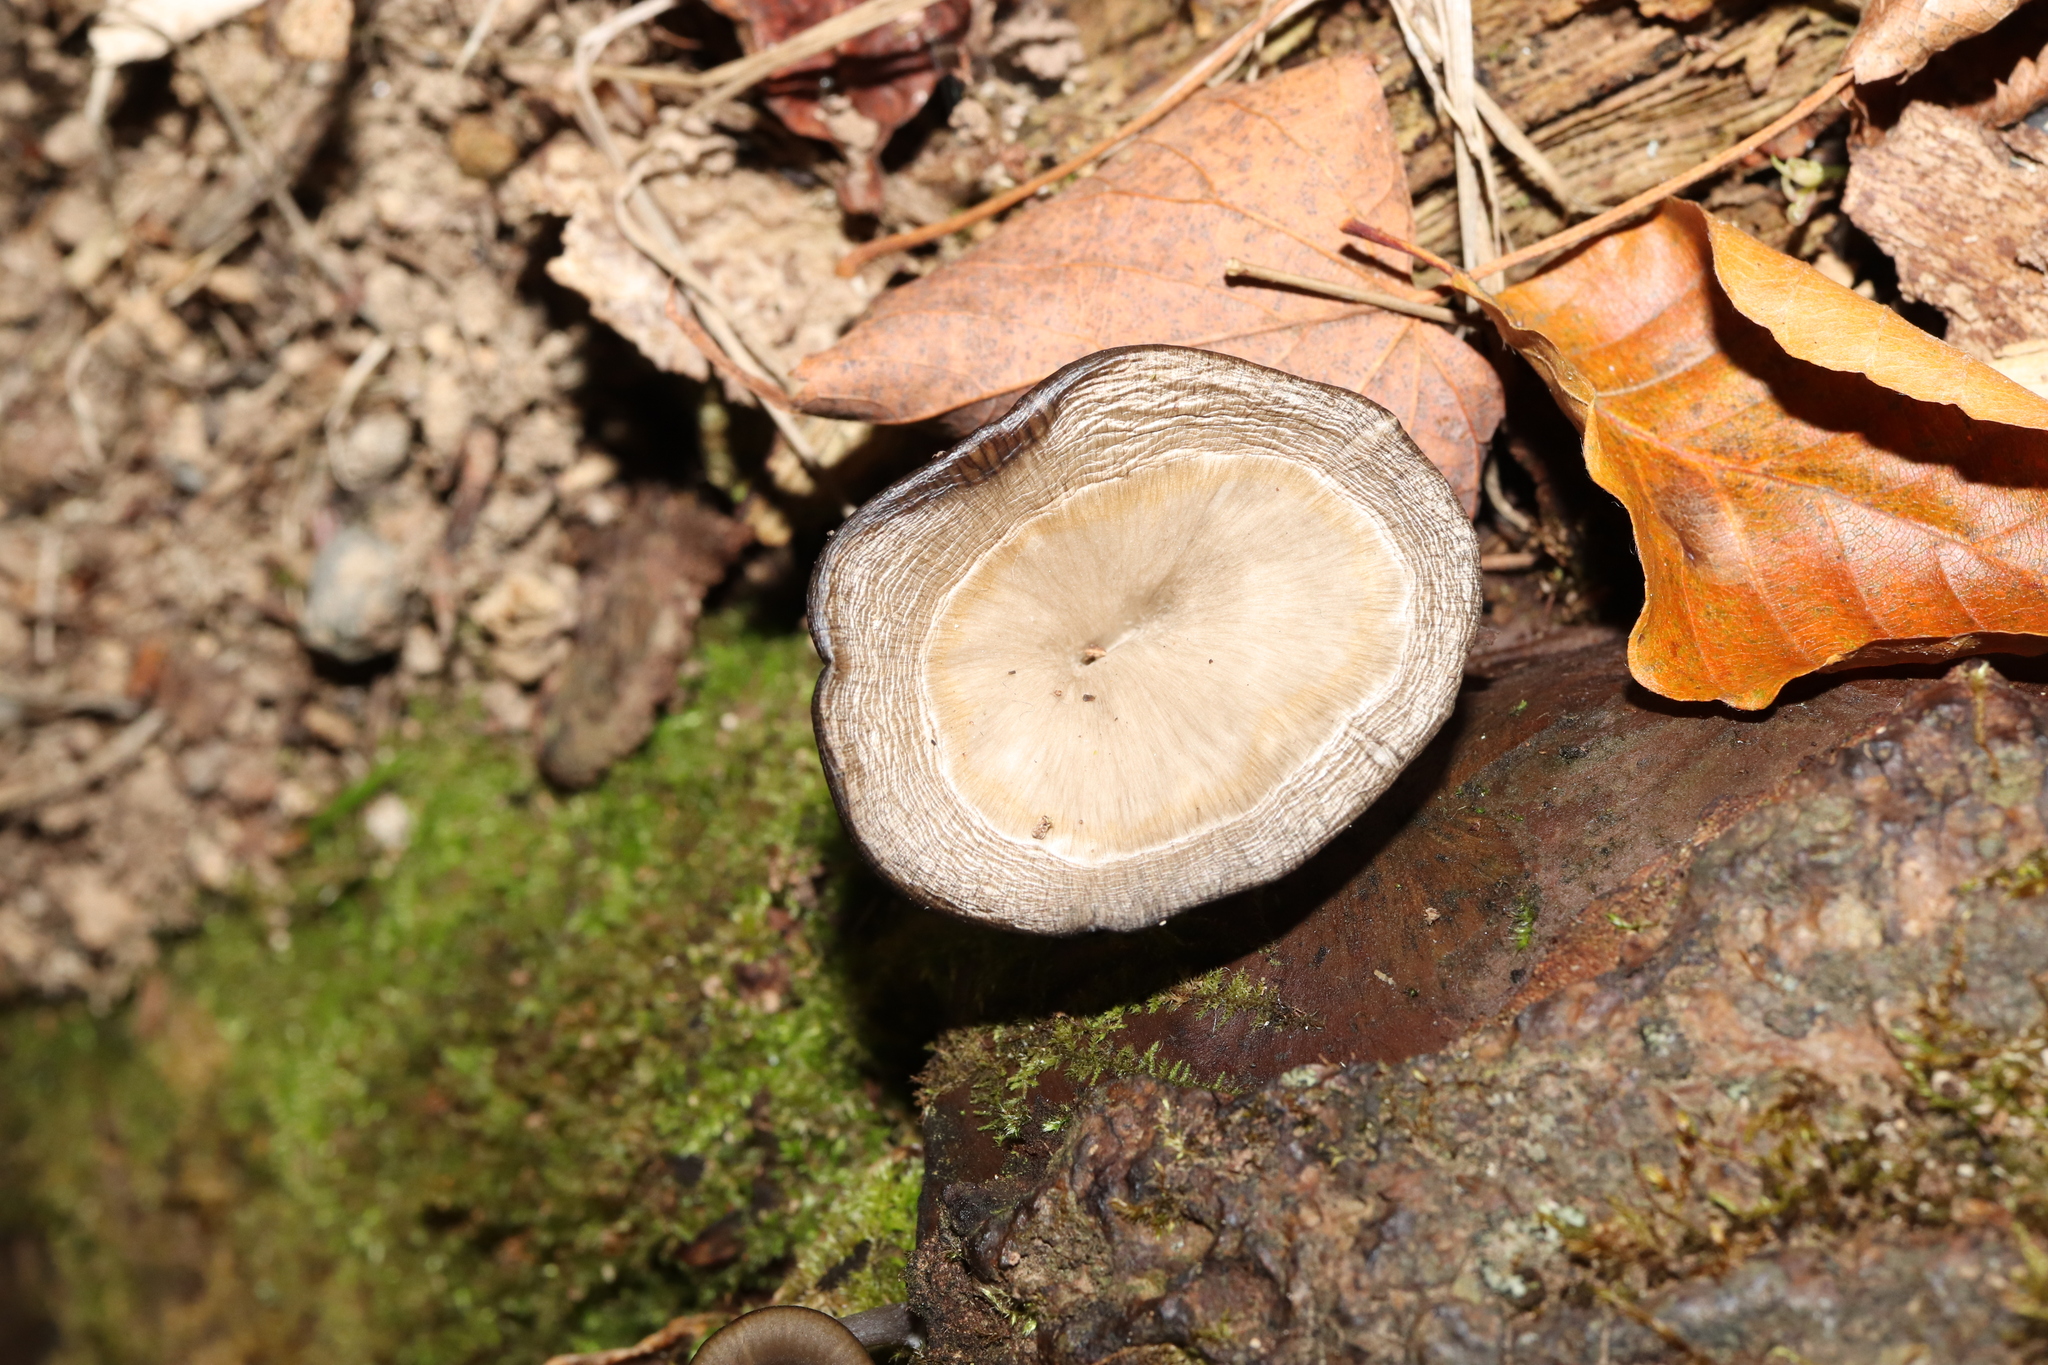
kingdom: Fungi
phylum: Basidiomycota
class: Agaricomycetes
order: Agaricales
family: Pseudoclitocybaceae
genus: Pseudoclitocybe
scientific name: Pseudoclitocybe cyathiformis
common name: Goblet
